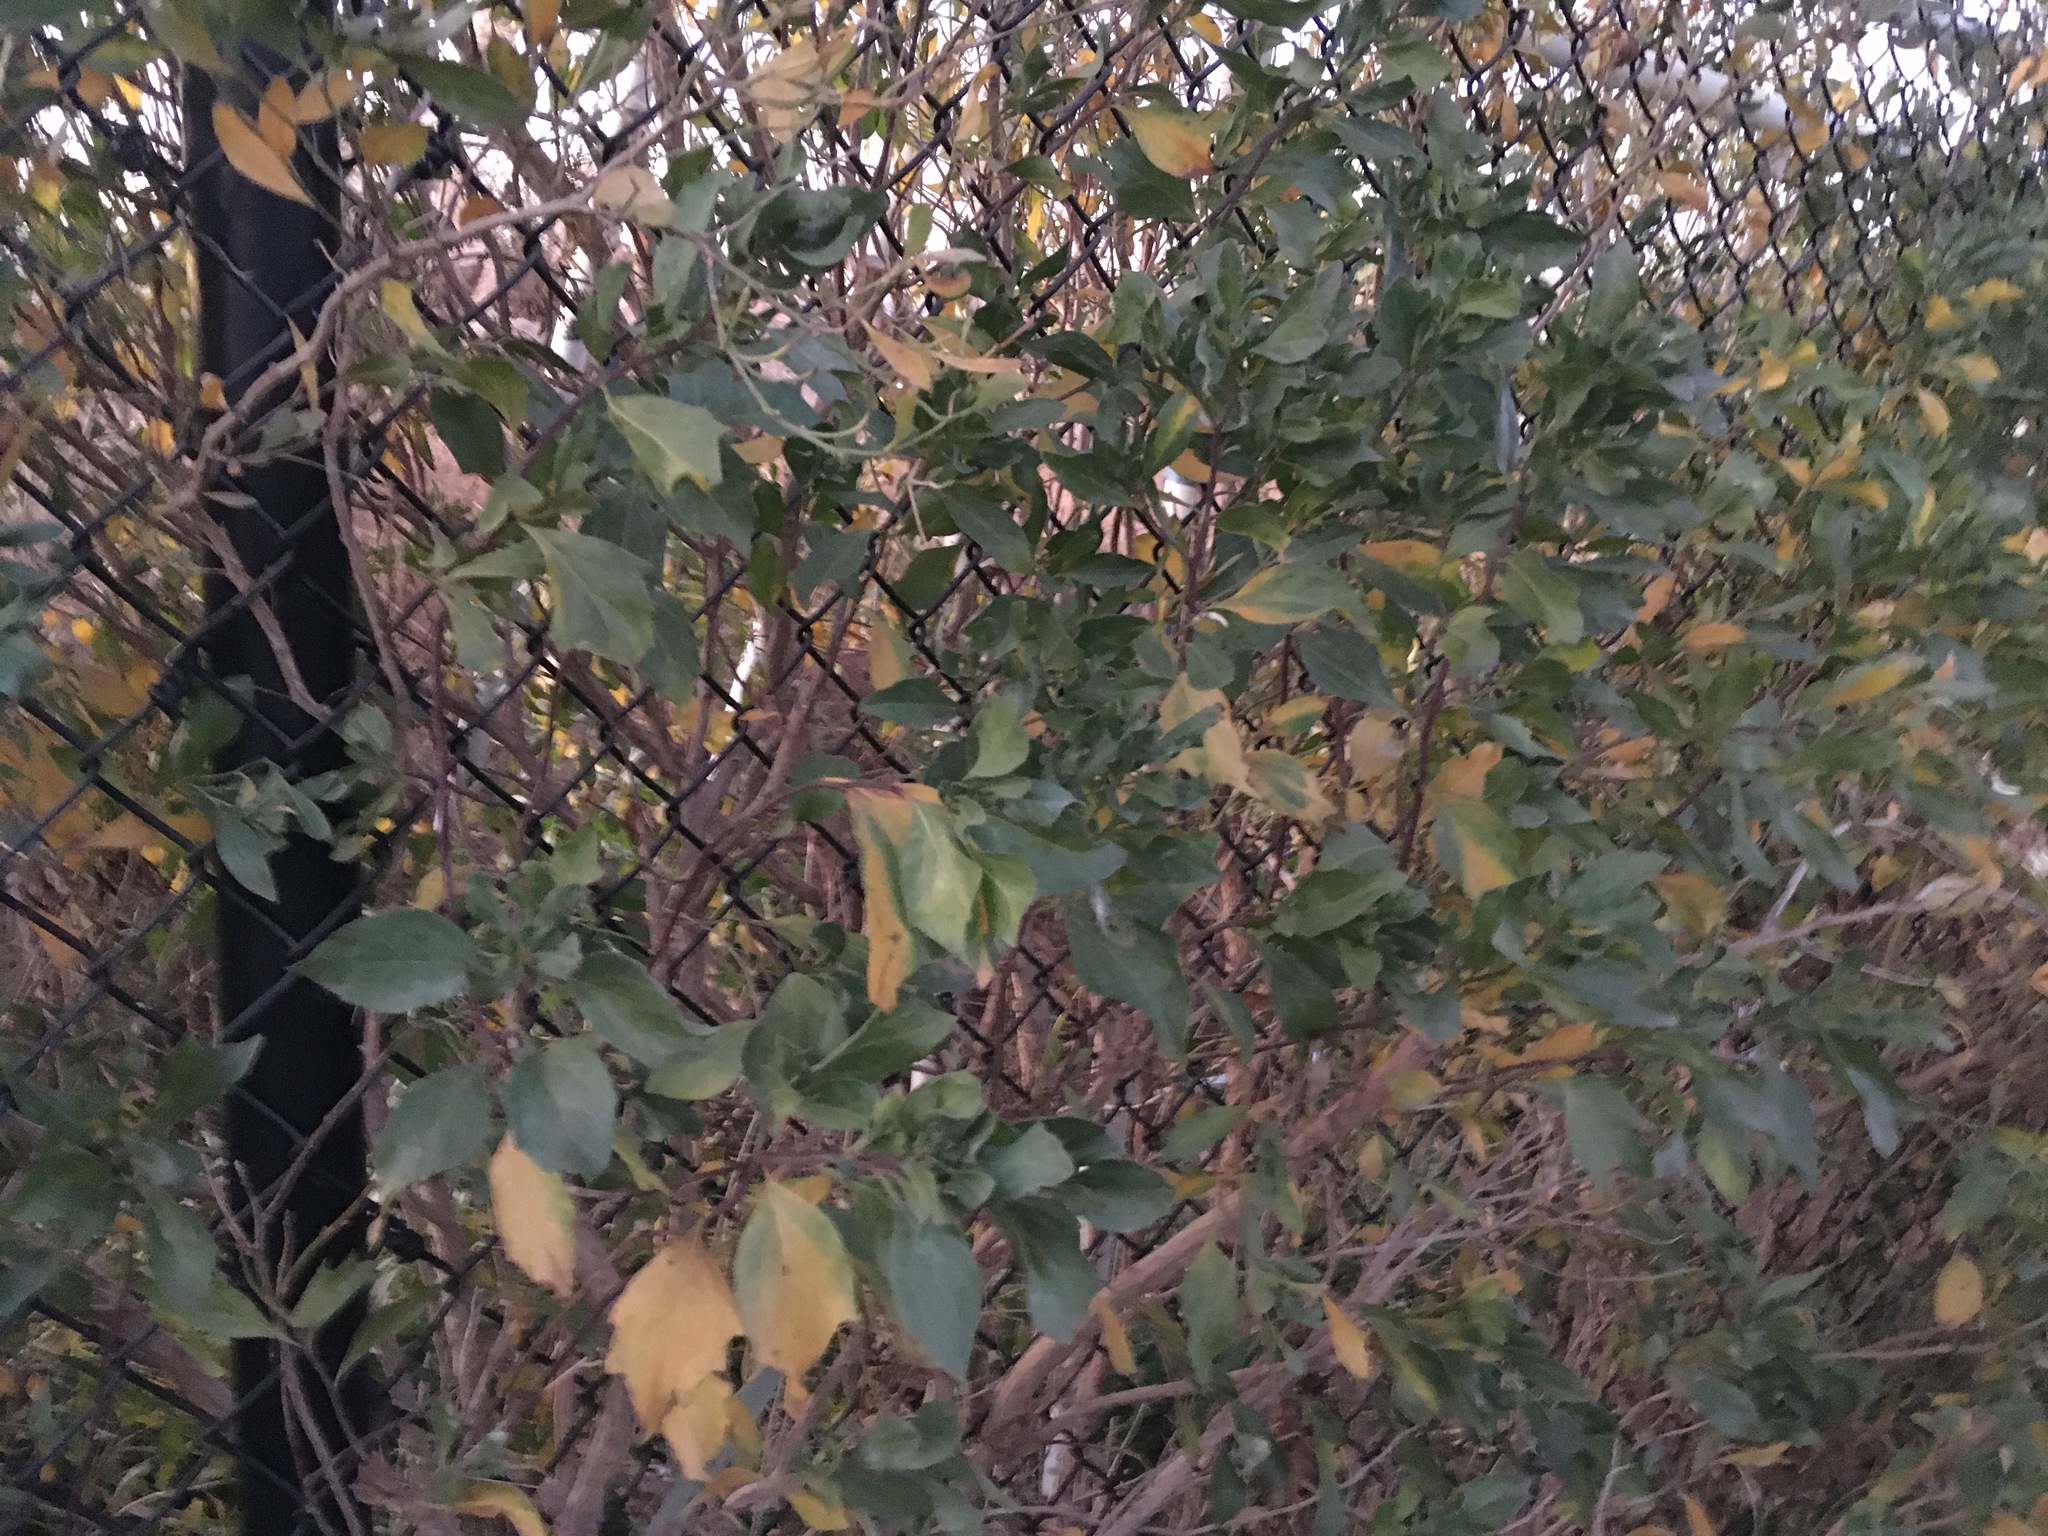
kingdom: Plantae
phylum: Tracheophyta
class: Magnoliopsida
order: Asterales
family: Asteraceae
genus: Baccharis
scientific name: Baccharis halimifolia
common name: Eastern baccharis
